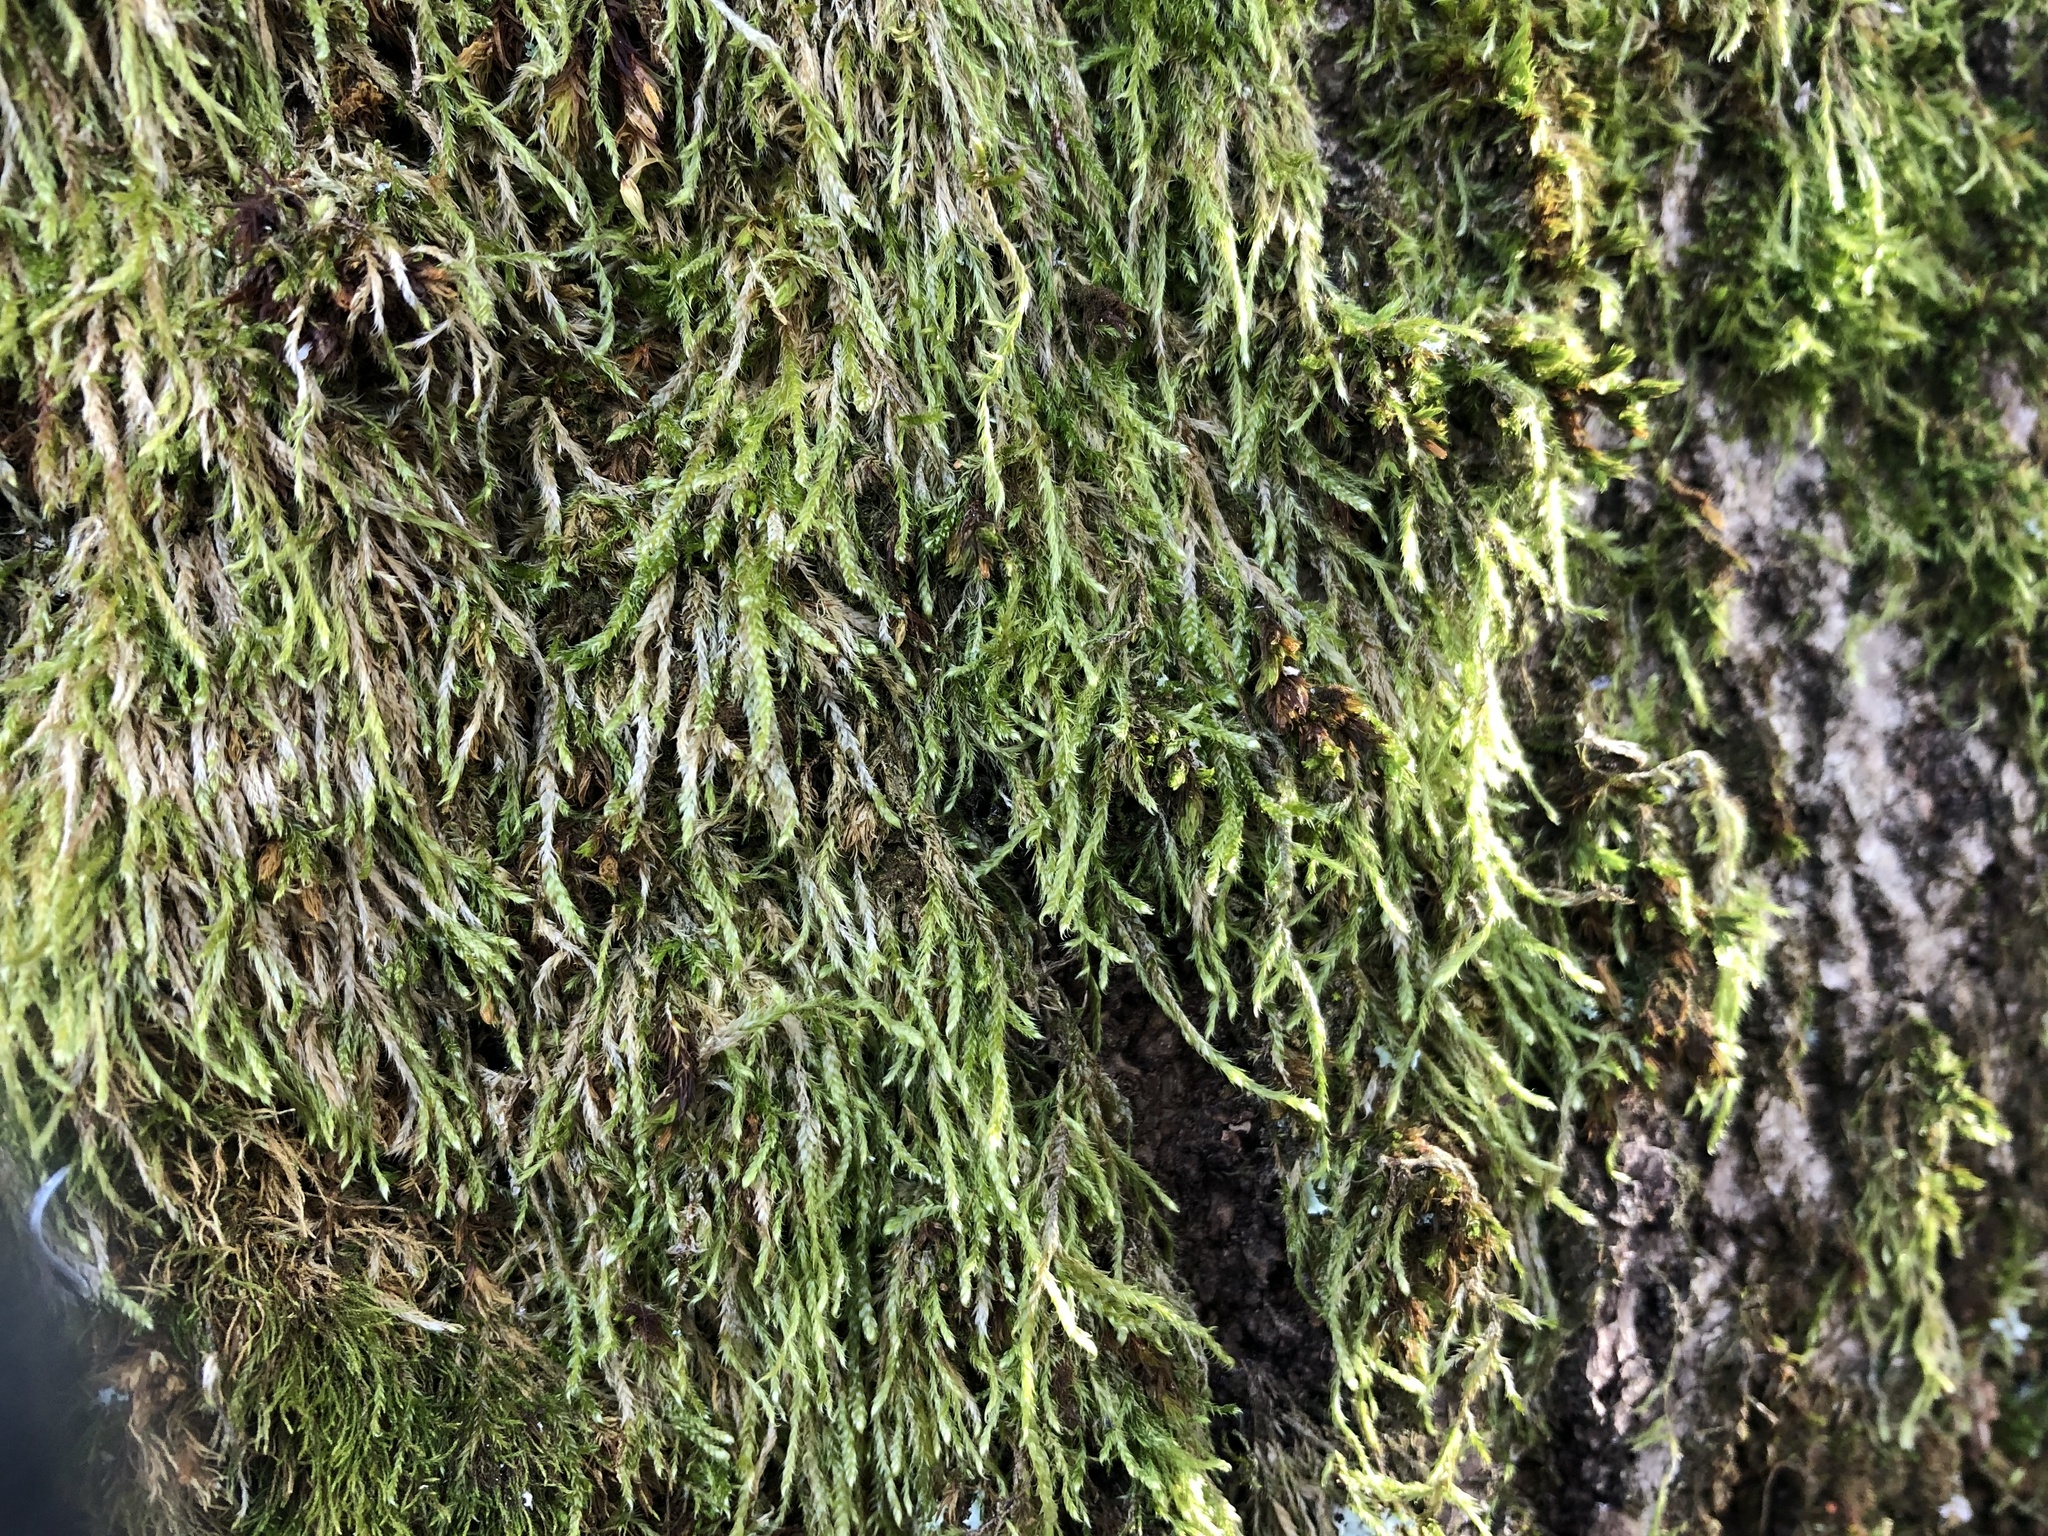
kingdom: Plantae
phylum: Bryophyta
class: Bryopsida
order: Hypnales
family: Hypnaceae
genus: Hypnum
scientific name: Hypnum cupressiforme
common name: Cypress-leaved plait-moss
